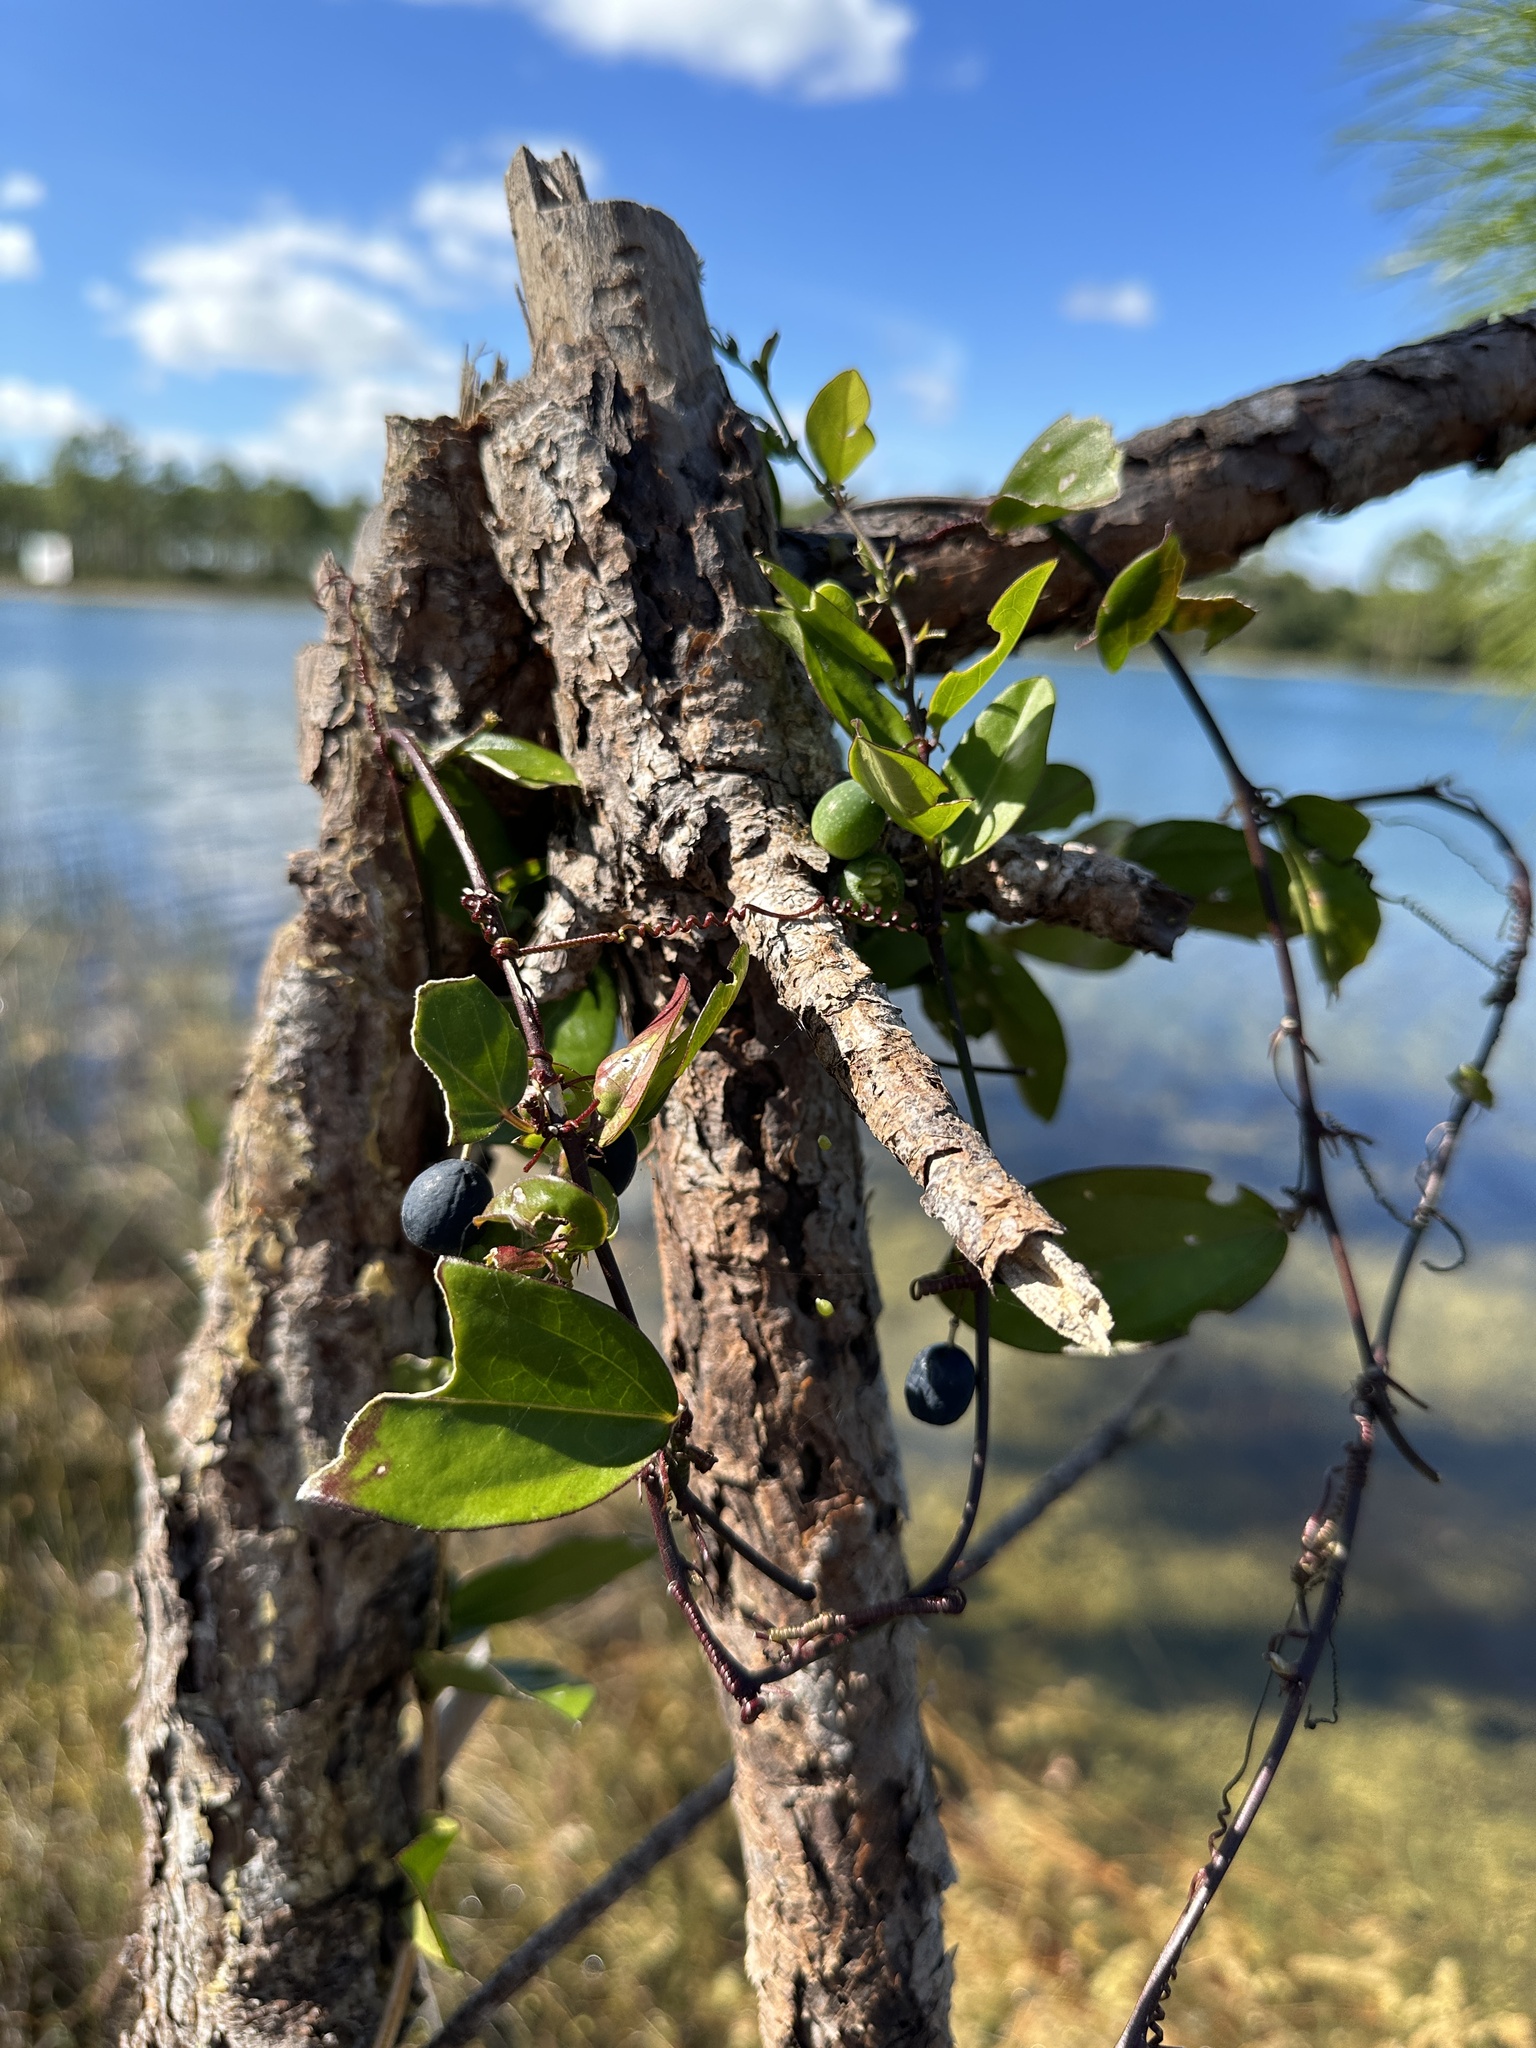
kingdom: Plantae
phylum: Tracheophyta
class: Magnoliopsida
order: Malpighiales
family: Passifloraceae
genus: Passiflora
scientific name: Passiflora pallida
